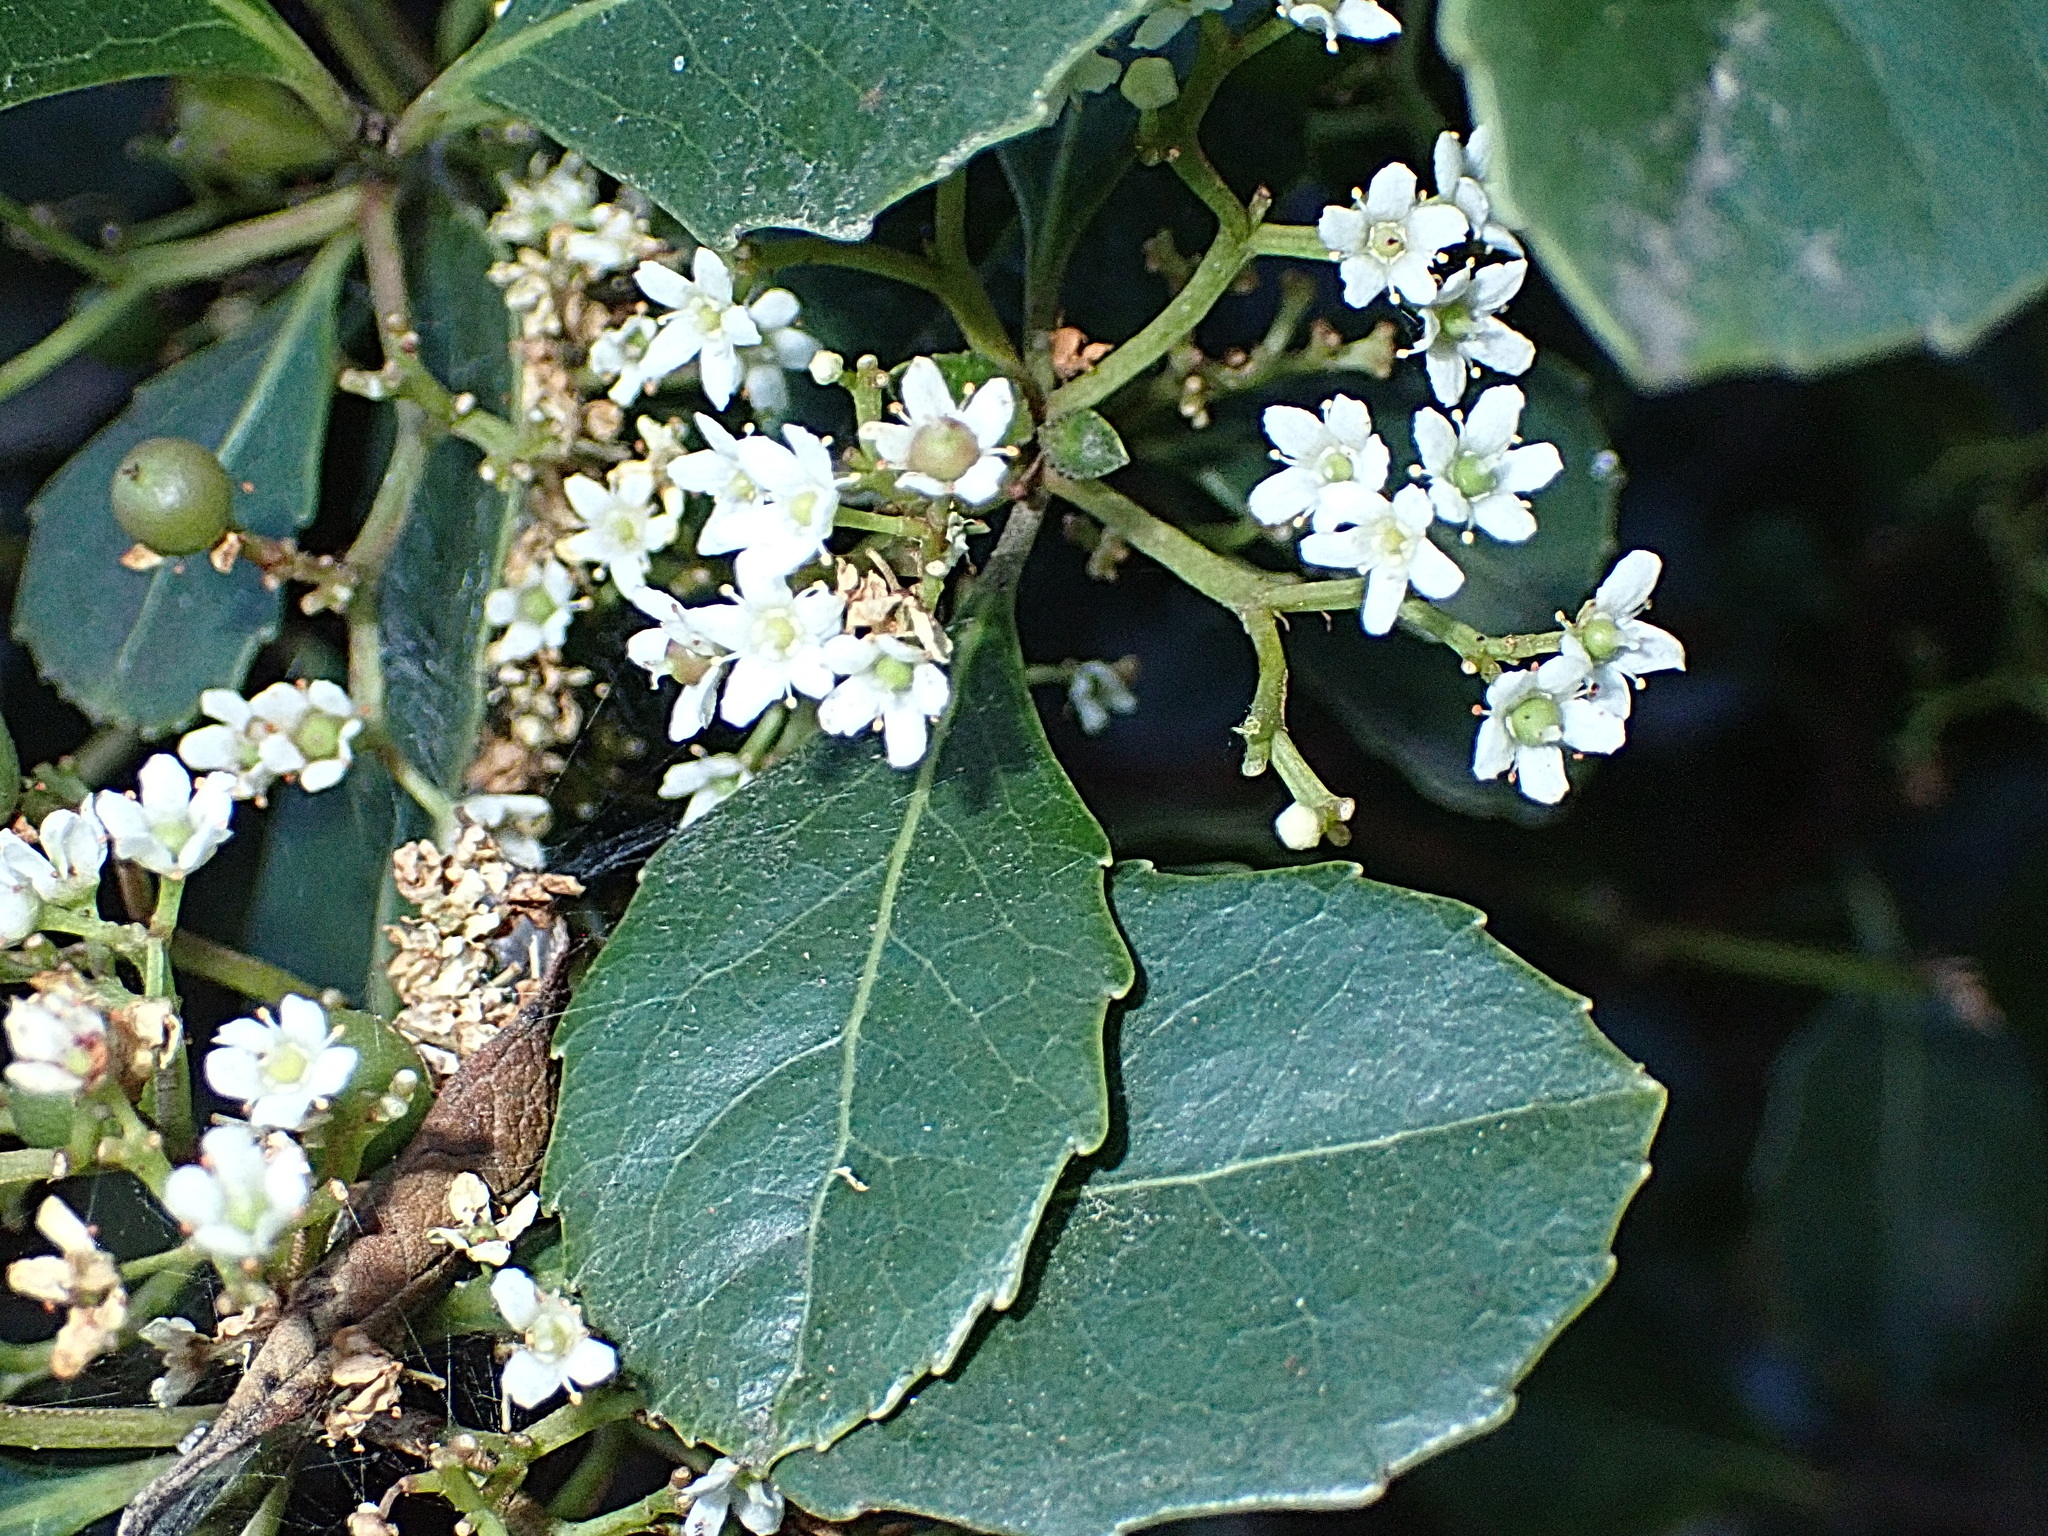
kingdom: Plantae
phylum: Tracheophyta
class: Magnoliopsida
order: Celastrales
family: Celastraceae
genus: Cassine
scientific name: Cassine peragua
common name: Cape saffron
